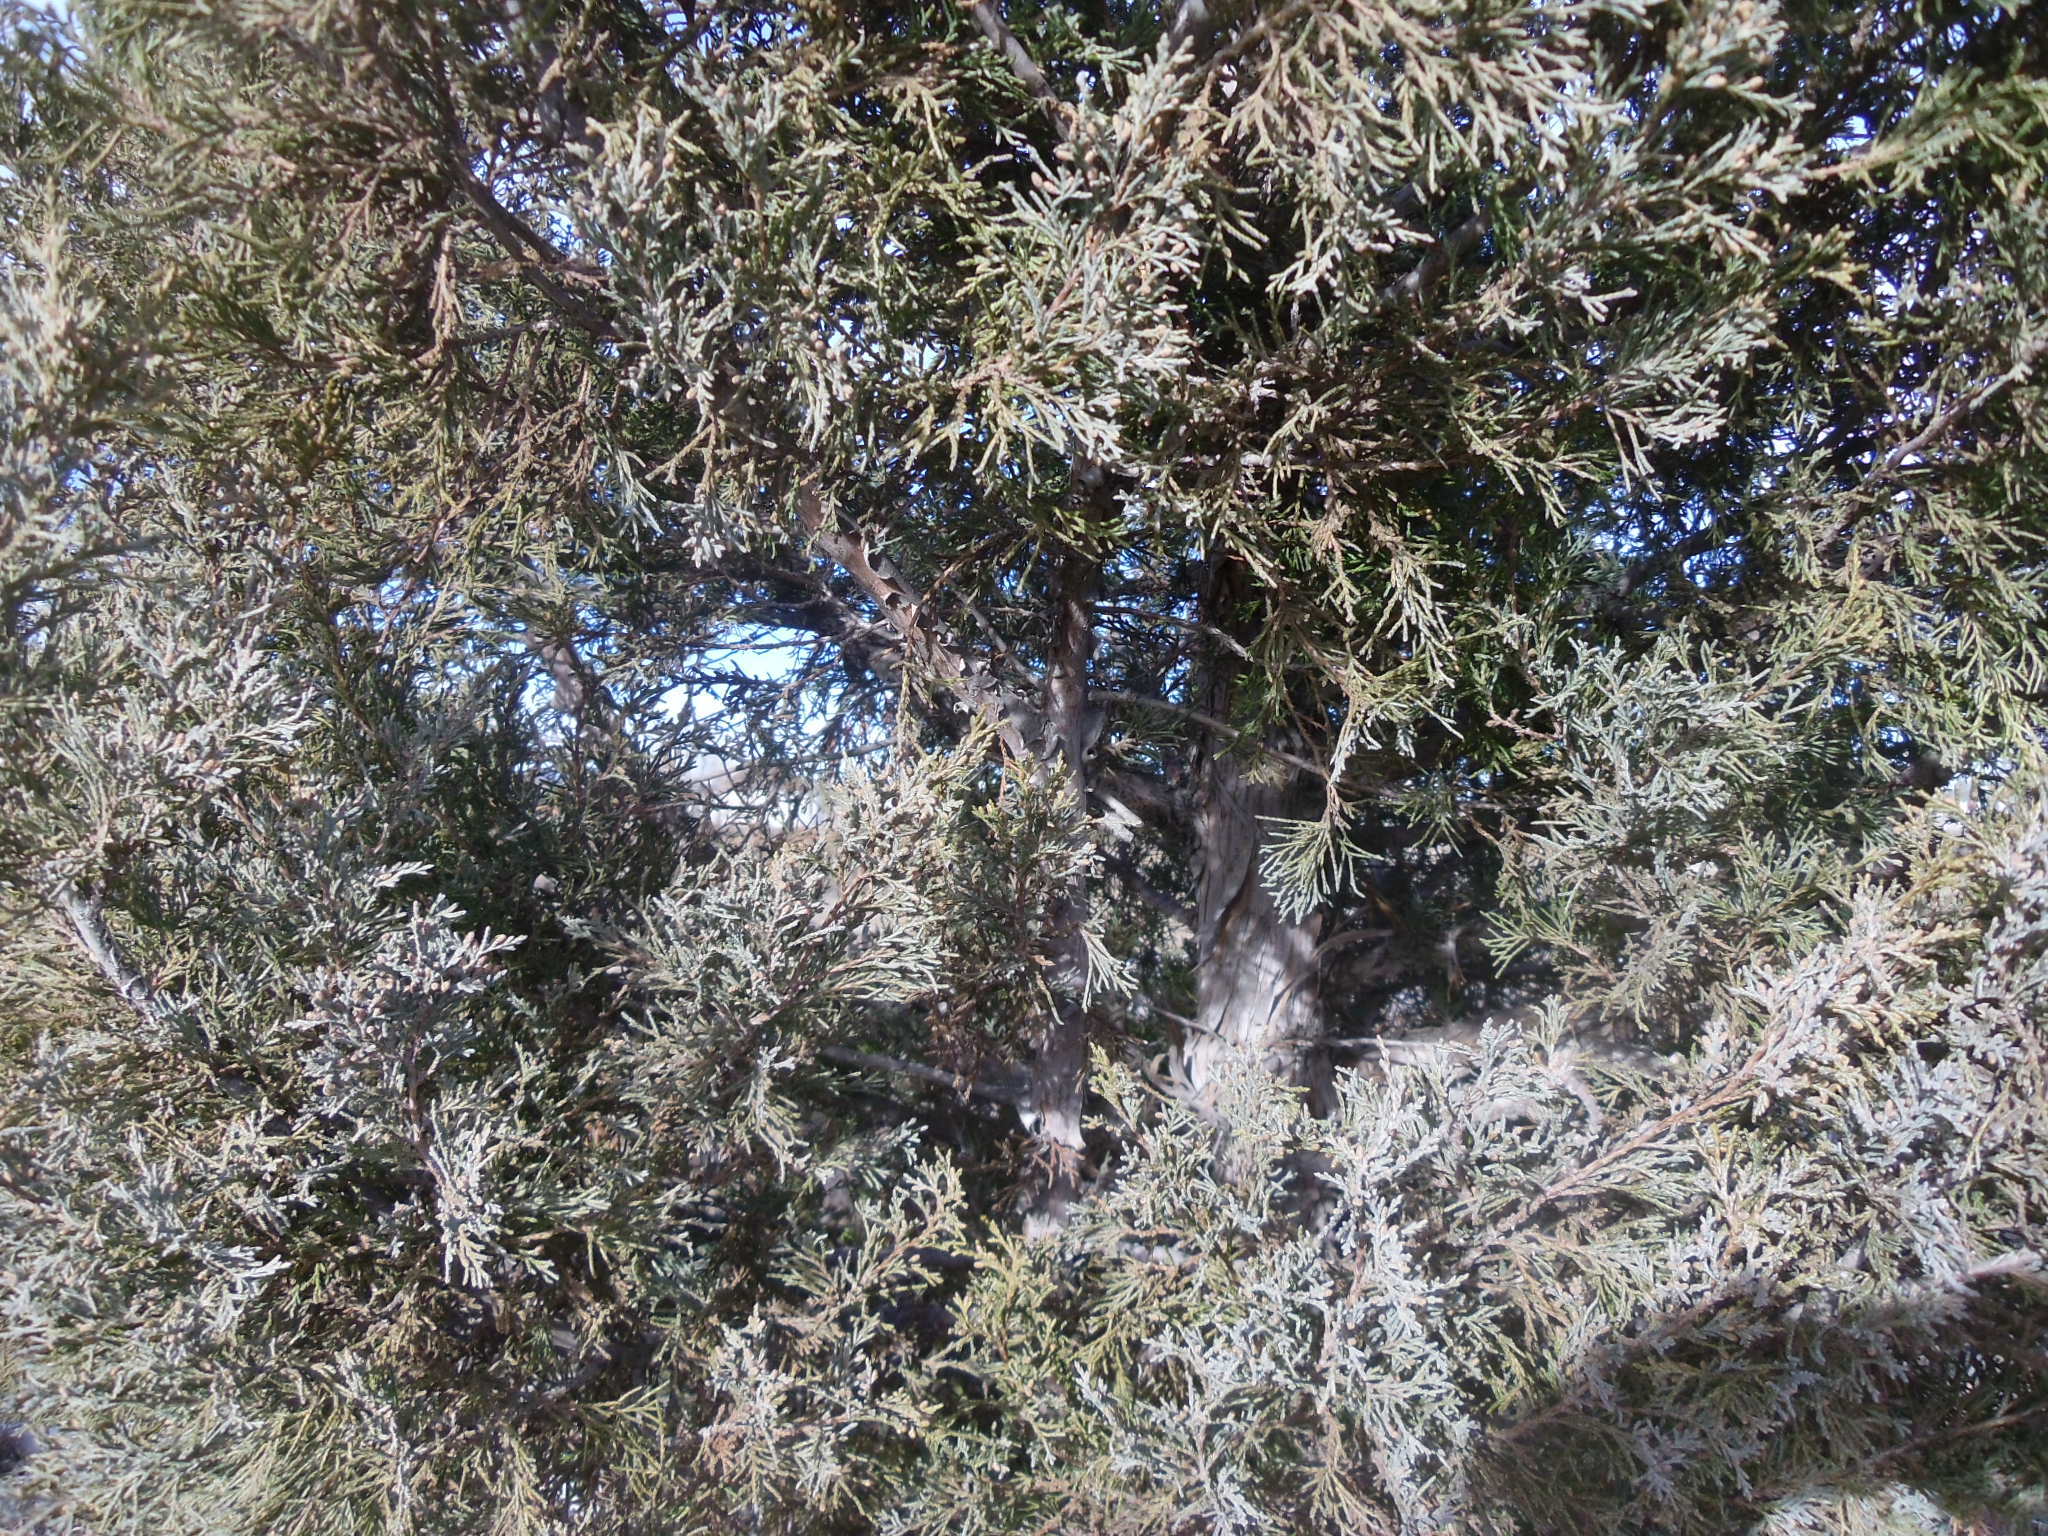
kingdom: Plantae
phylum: Tracheophyta
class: Pinopsida
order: Pinales
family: Cupressaceae
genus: Juniperus
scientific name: Juniperus scopulorum
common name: Rocky mountain juniper
